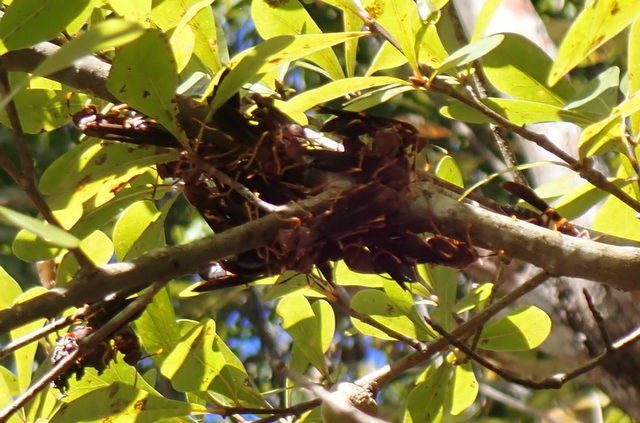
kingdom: Animalia
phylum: Arthropoda
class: Insecta
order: Hymenoptera
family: Eumenidae
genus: Polistes
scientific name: Polistes annularis
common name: Ringed paper wasp
